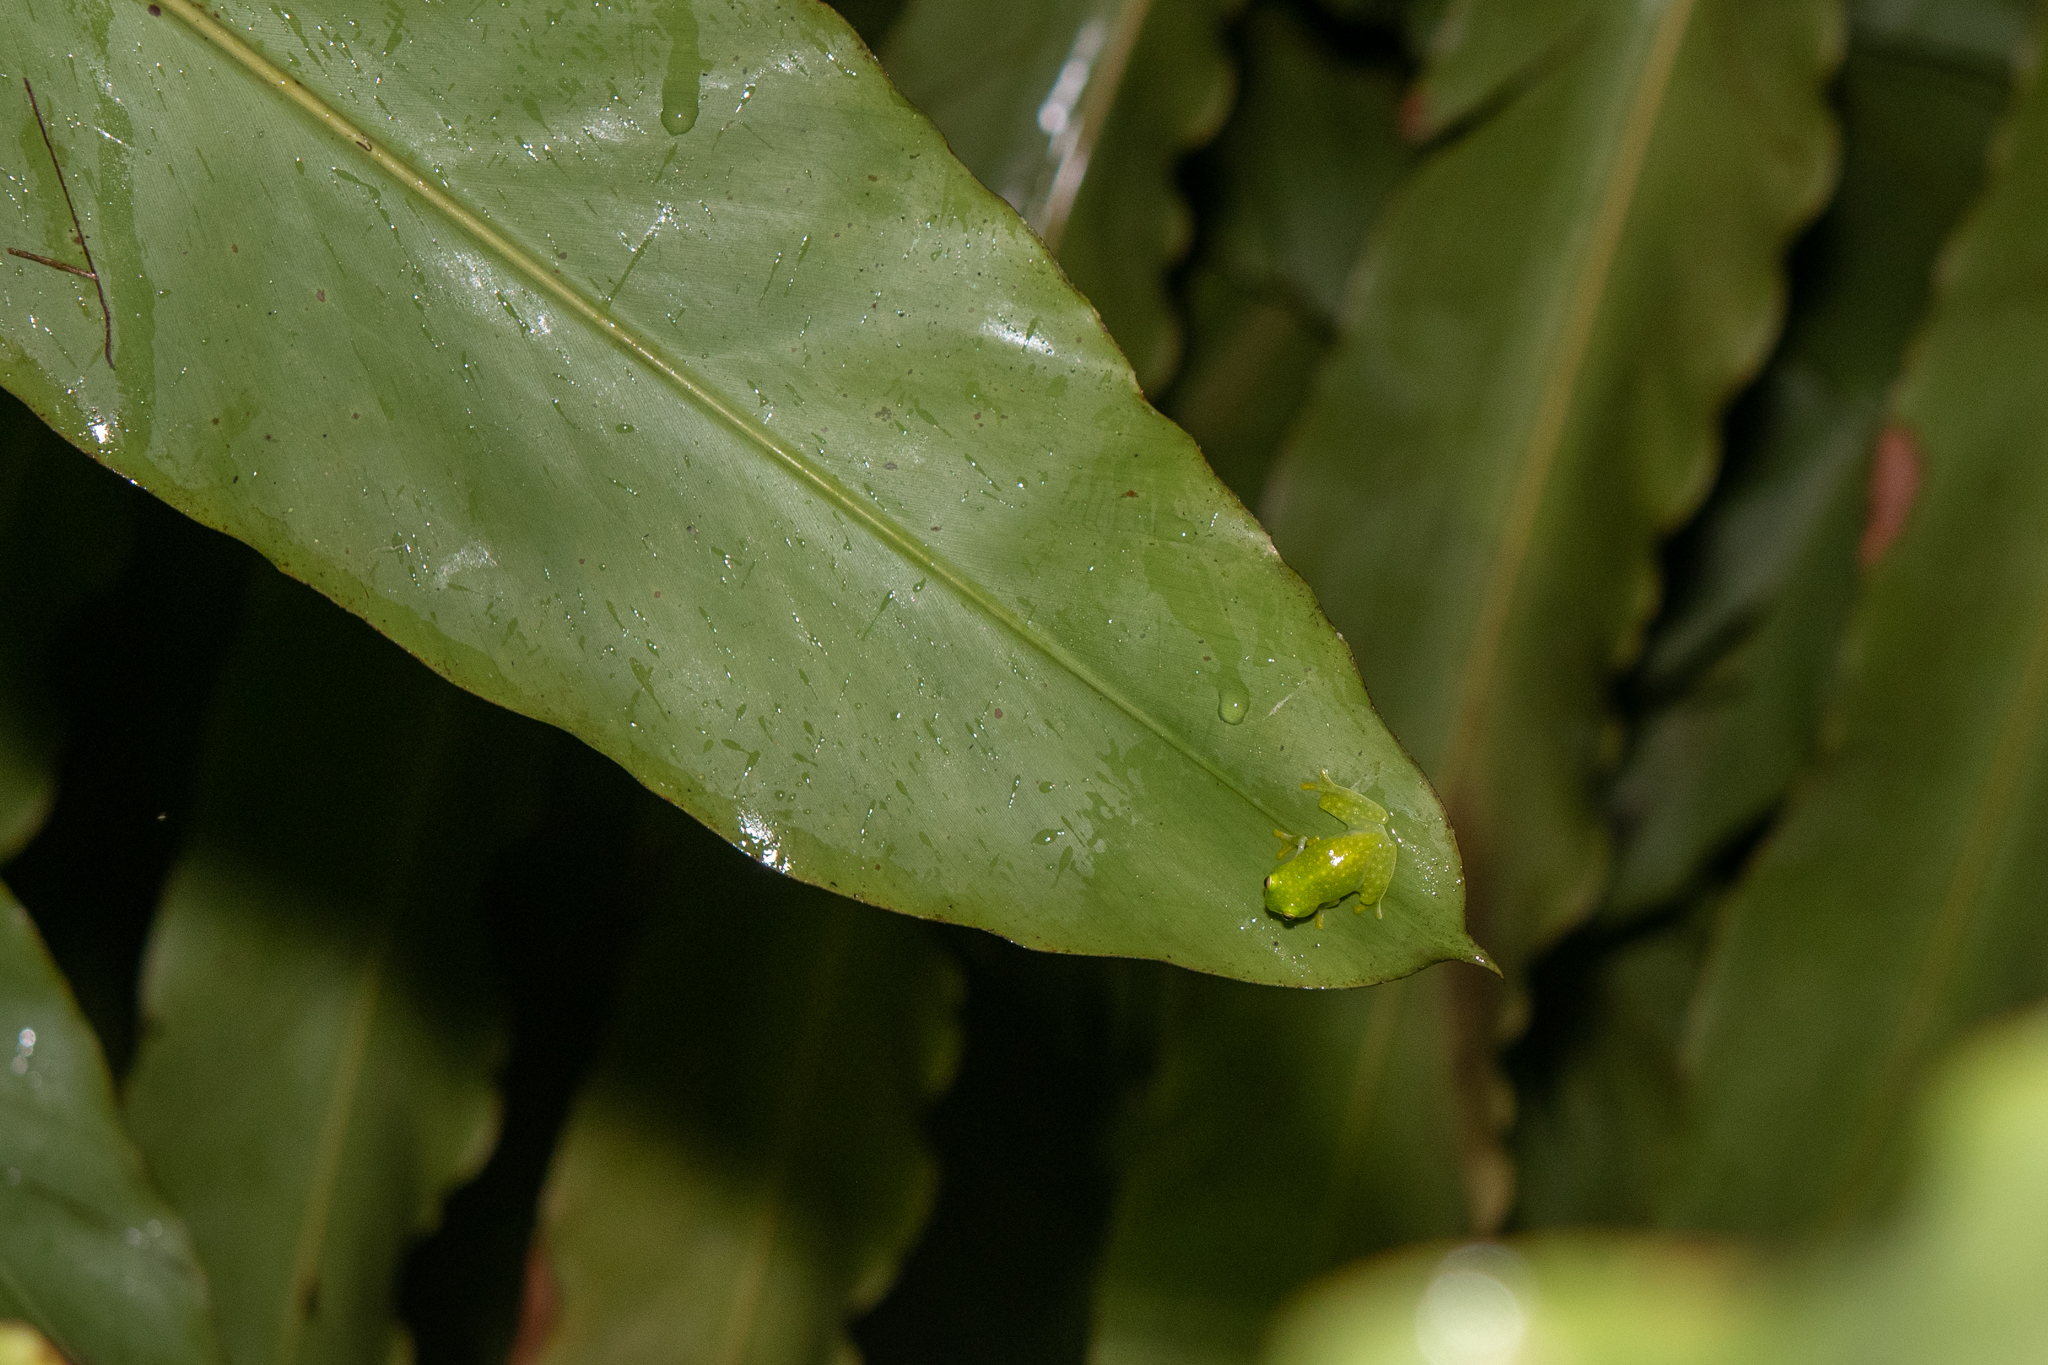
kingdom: Animalia
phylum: Chordata
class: Amphibia
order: Anura
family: Centrolenidae
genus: Hyalinobatrachium
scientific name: Hyalinobatrachium
